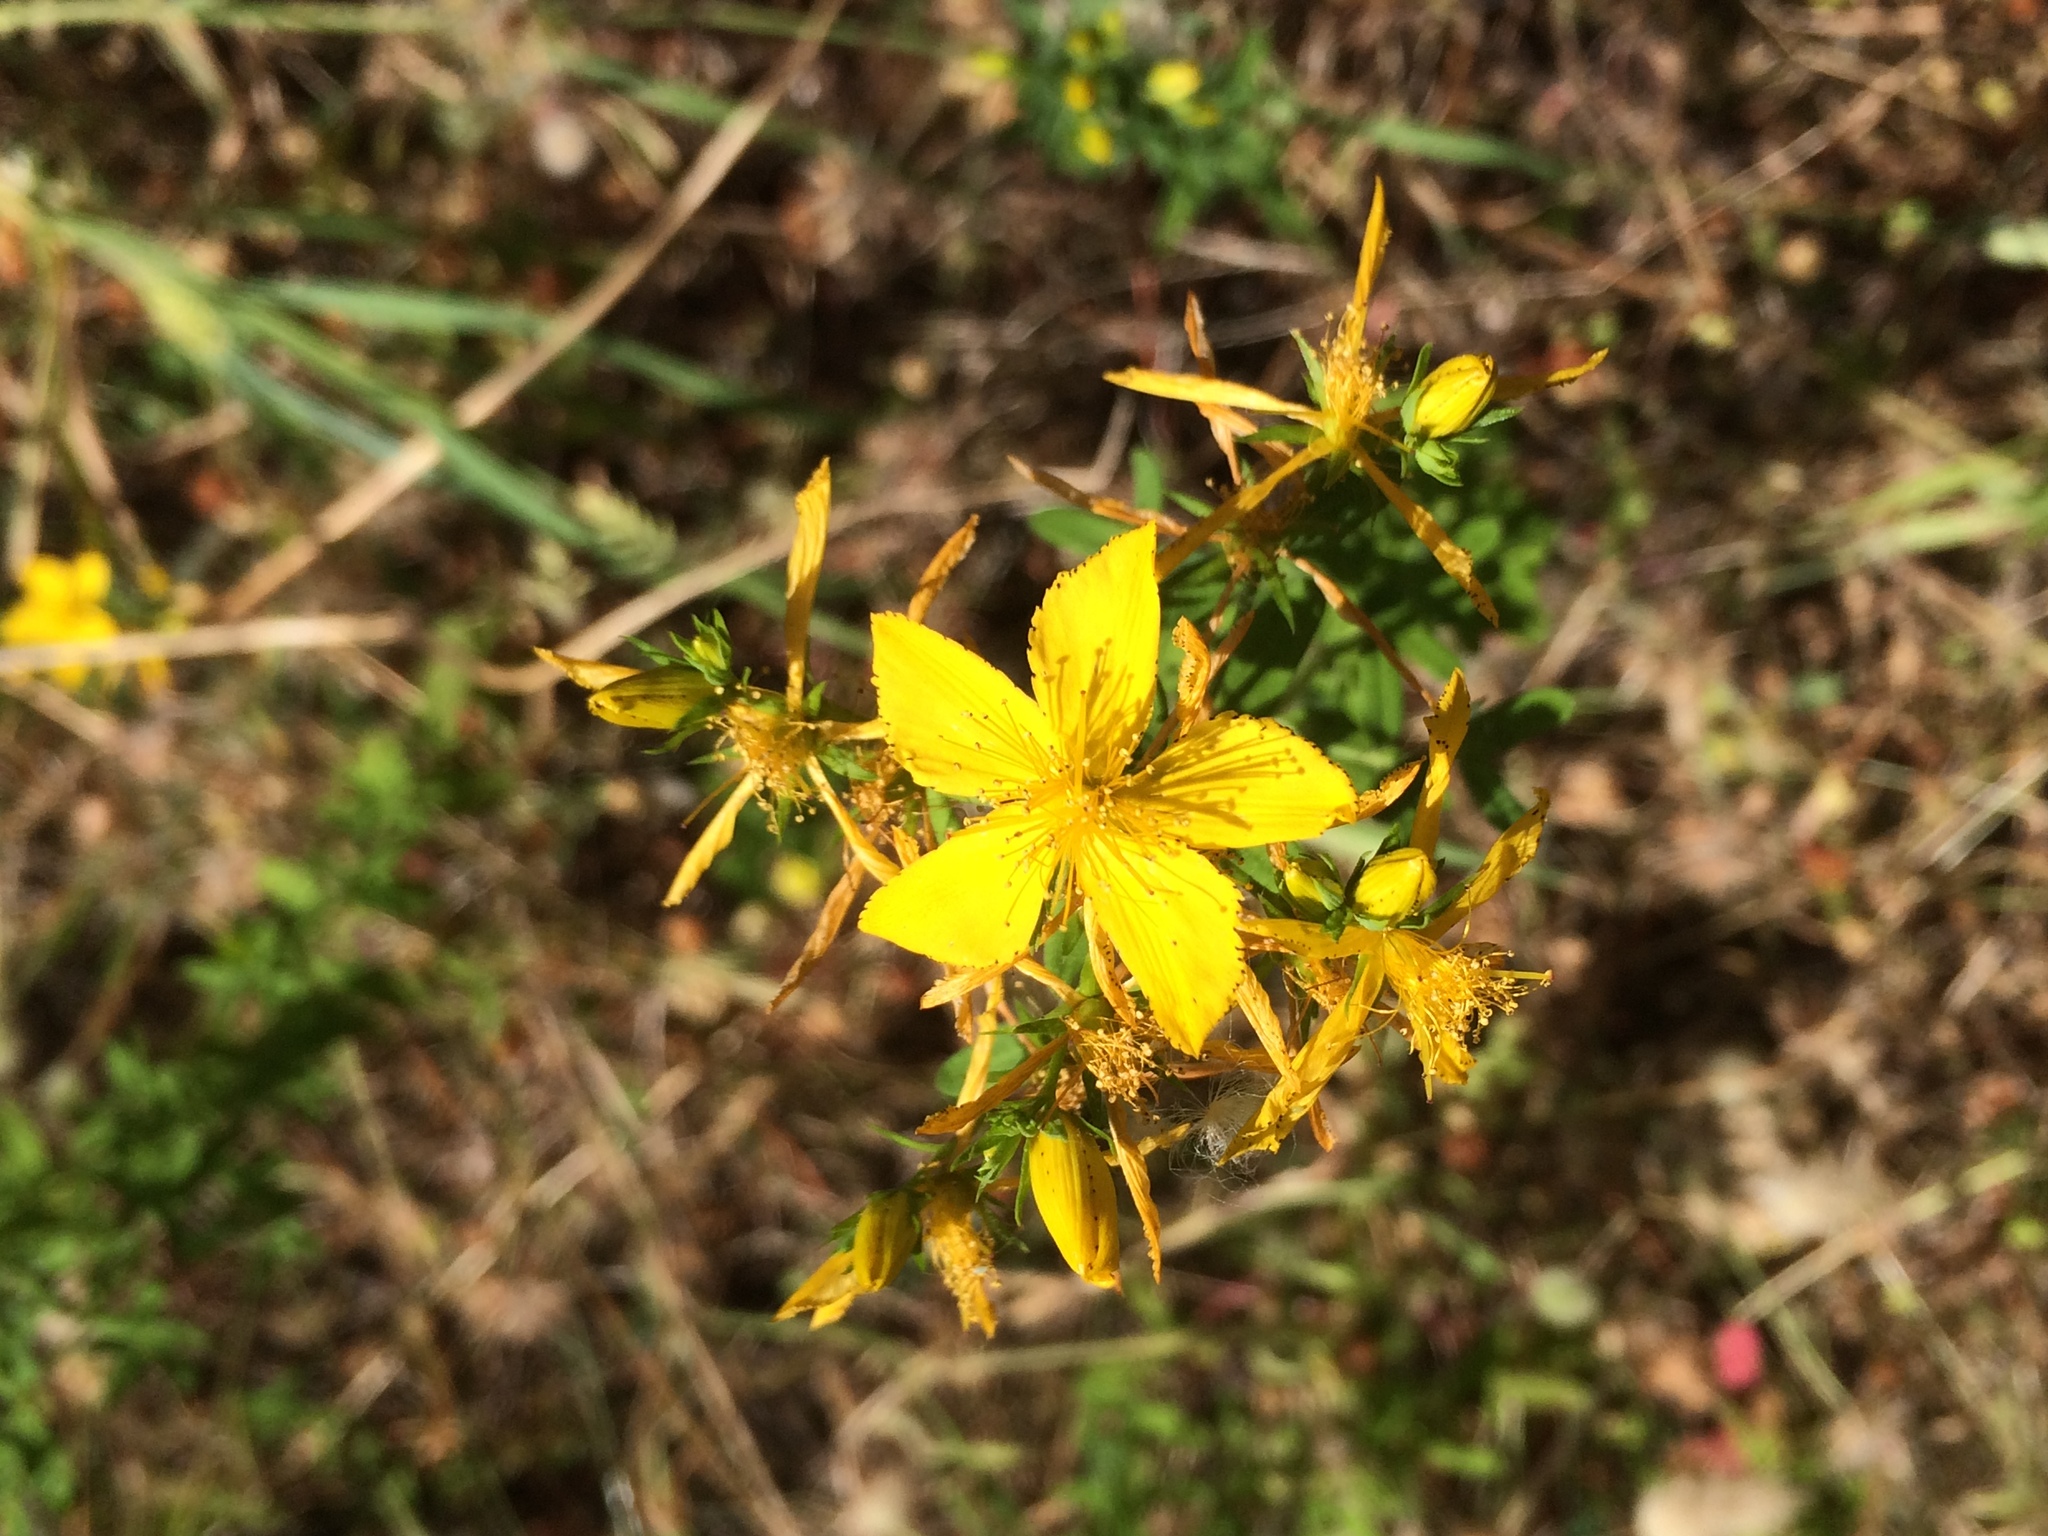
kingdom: Plantae
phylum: Tracheophyta
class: Magnoliopsida
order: Malpighiales
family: Hypericaceae
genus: Hypericum
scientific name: Hypericum perforatum
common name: Common st. johnswort
